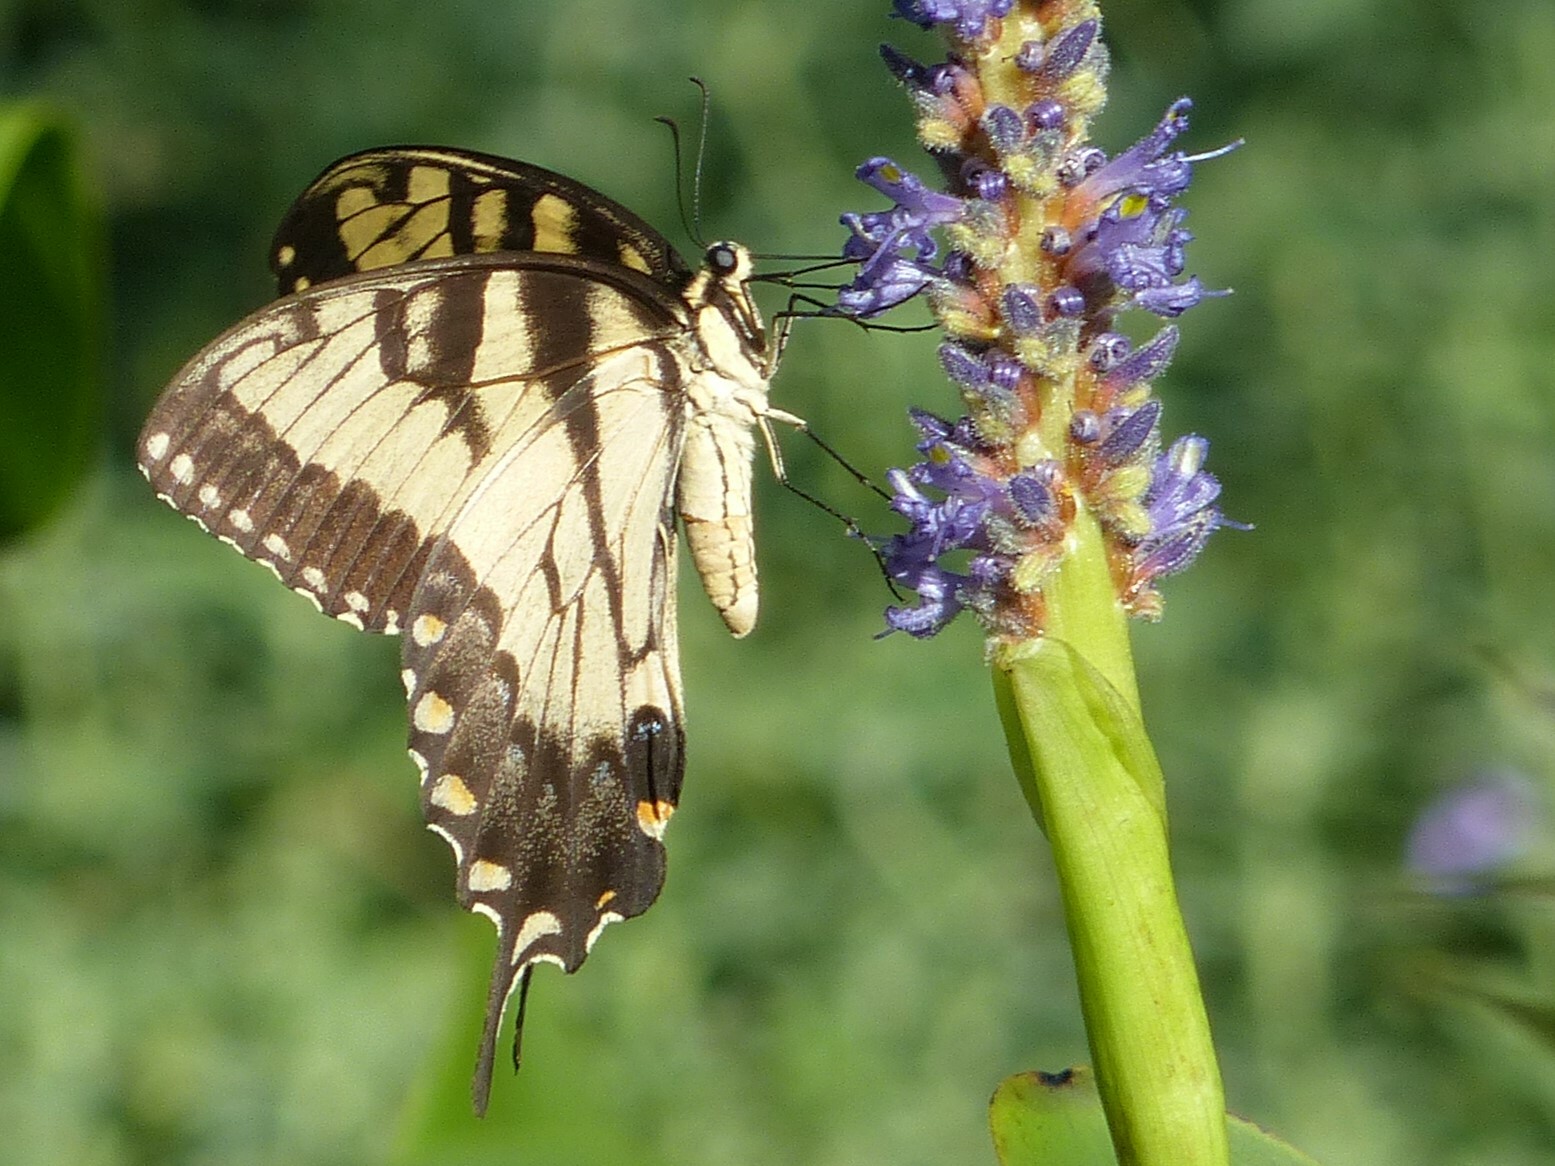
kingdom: Animalia
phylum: Arthropoda
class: Insecta
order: Lepidoptera
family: Papilionidae
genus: Papilio
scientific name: Papilio glaucus
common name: Tiger swallowtail
